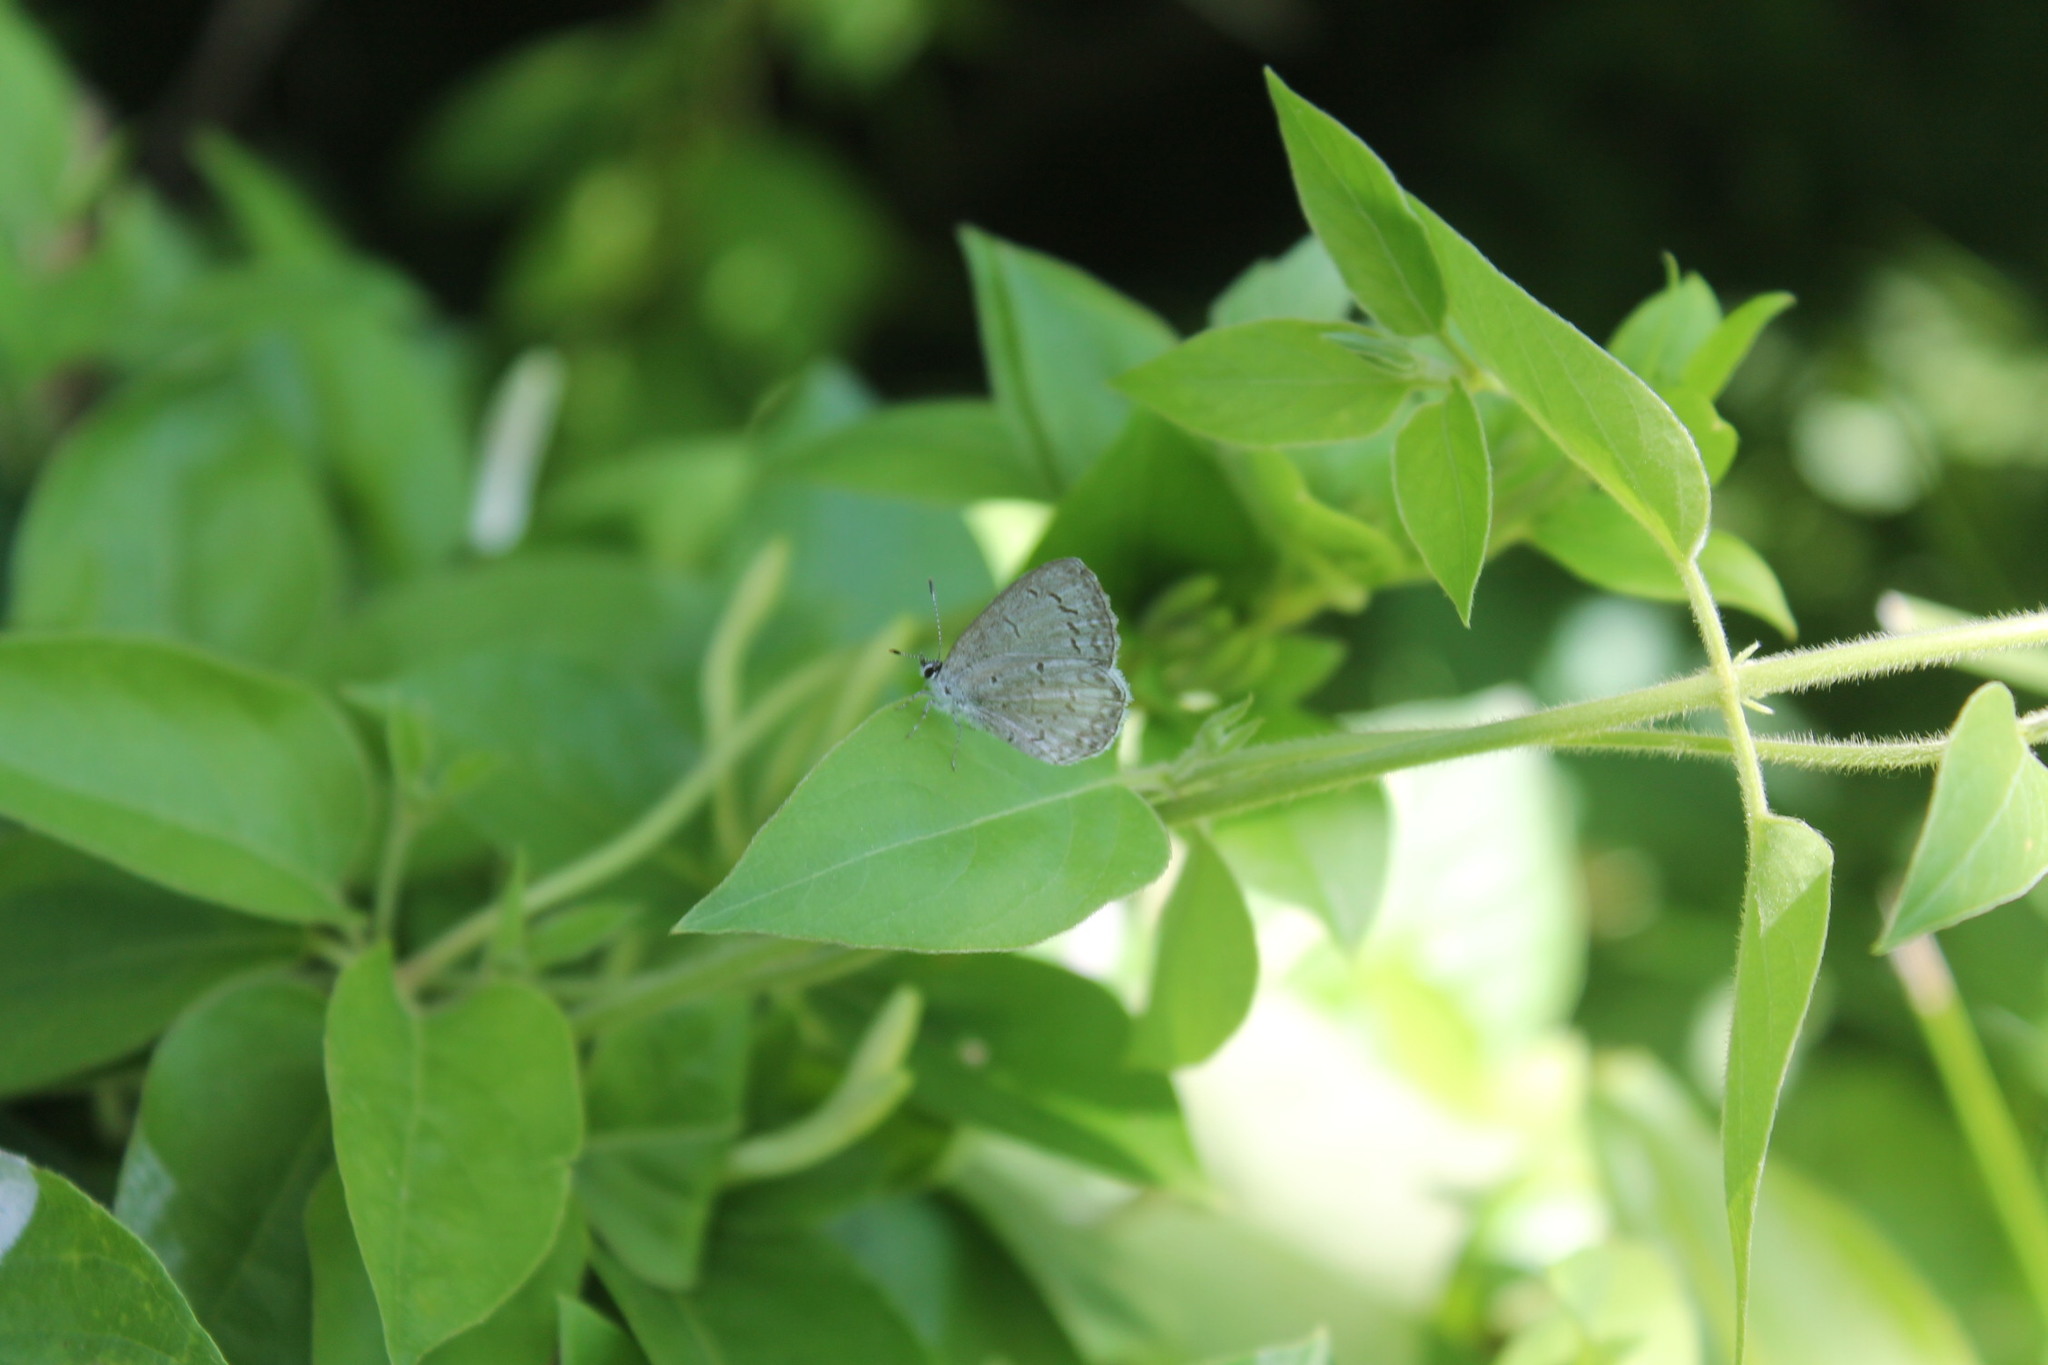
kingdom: Animalia
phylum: Arthropoda
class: Insecta
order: Lepidoptera
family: Lycaenidae
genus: Cyaniris
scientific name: Cyaniris neglecta
